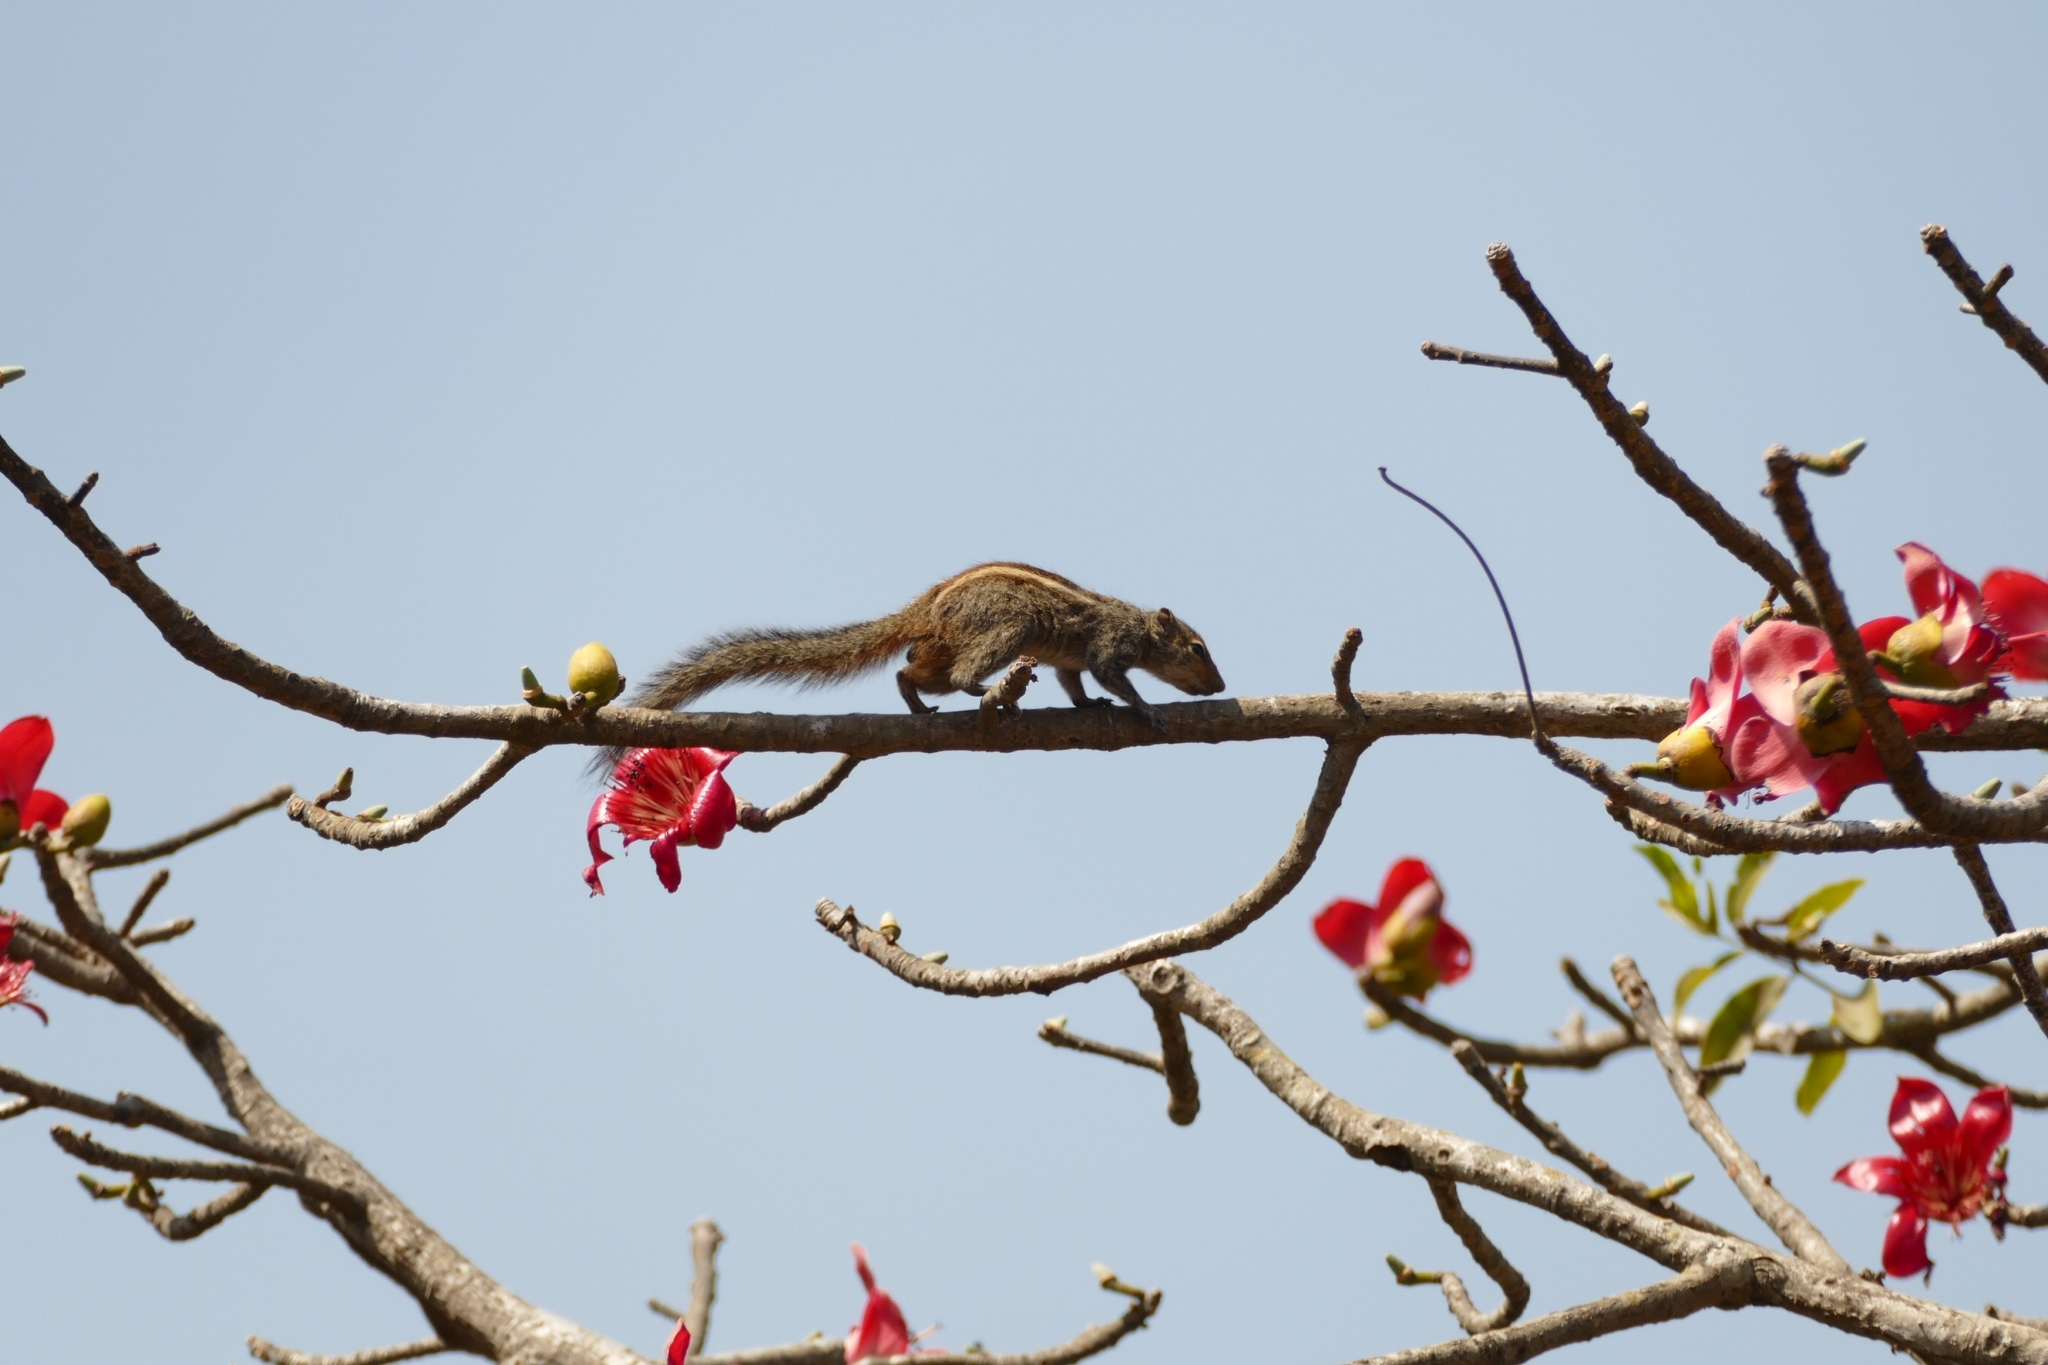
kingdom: Animalia
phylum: Chordata
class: Mammalia
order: Rodentia
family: Sciuridae
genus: Funambulus
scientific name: Funambulus palmarum
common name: Indian palm squirrel
